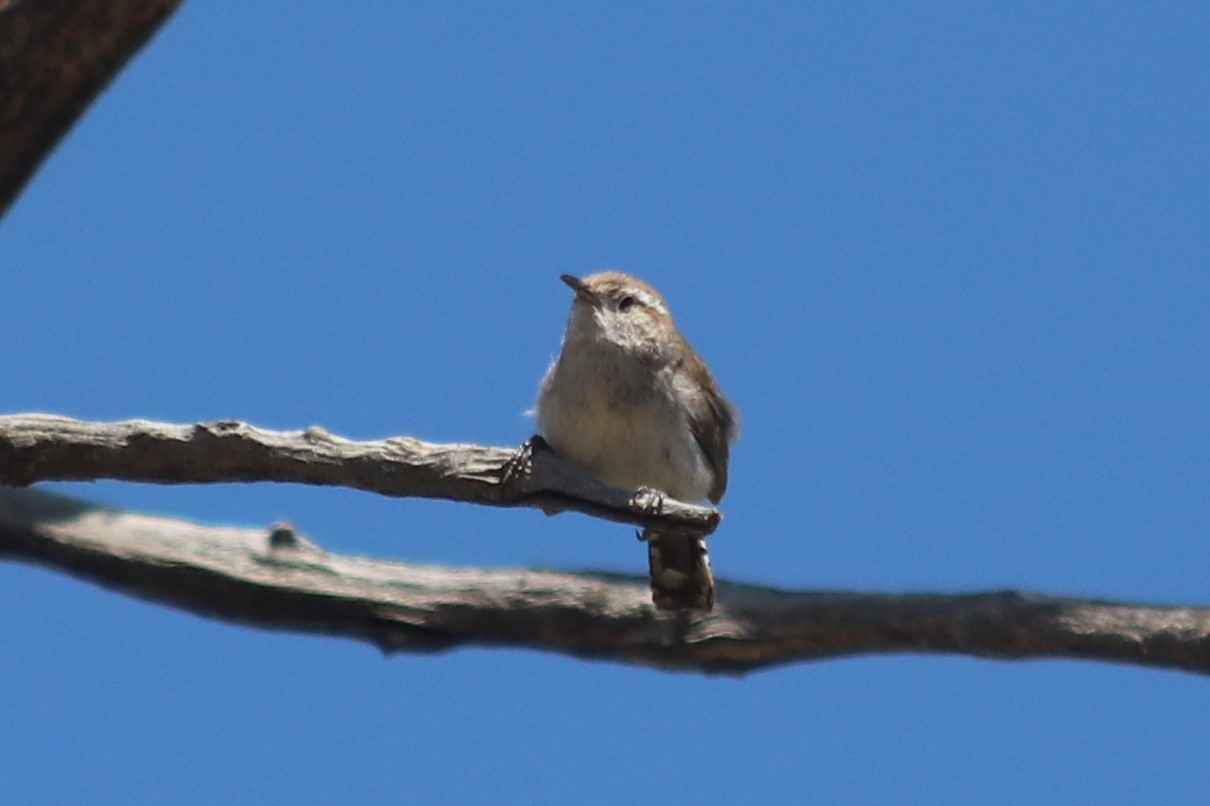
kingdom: Animalia
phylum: Chordata
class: Aves
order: Passeriformes
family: Troglodytidae
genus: Thryomanes
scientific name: Thryomanes bewickii
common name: Bewick's wren
